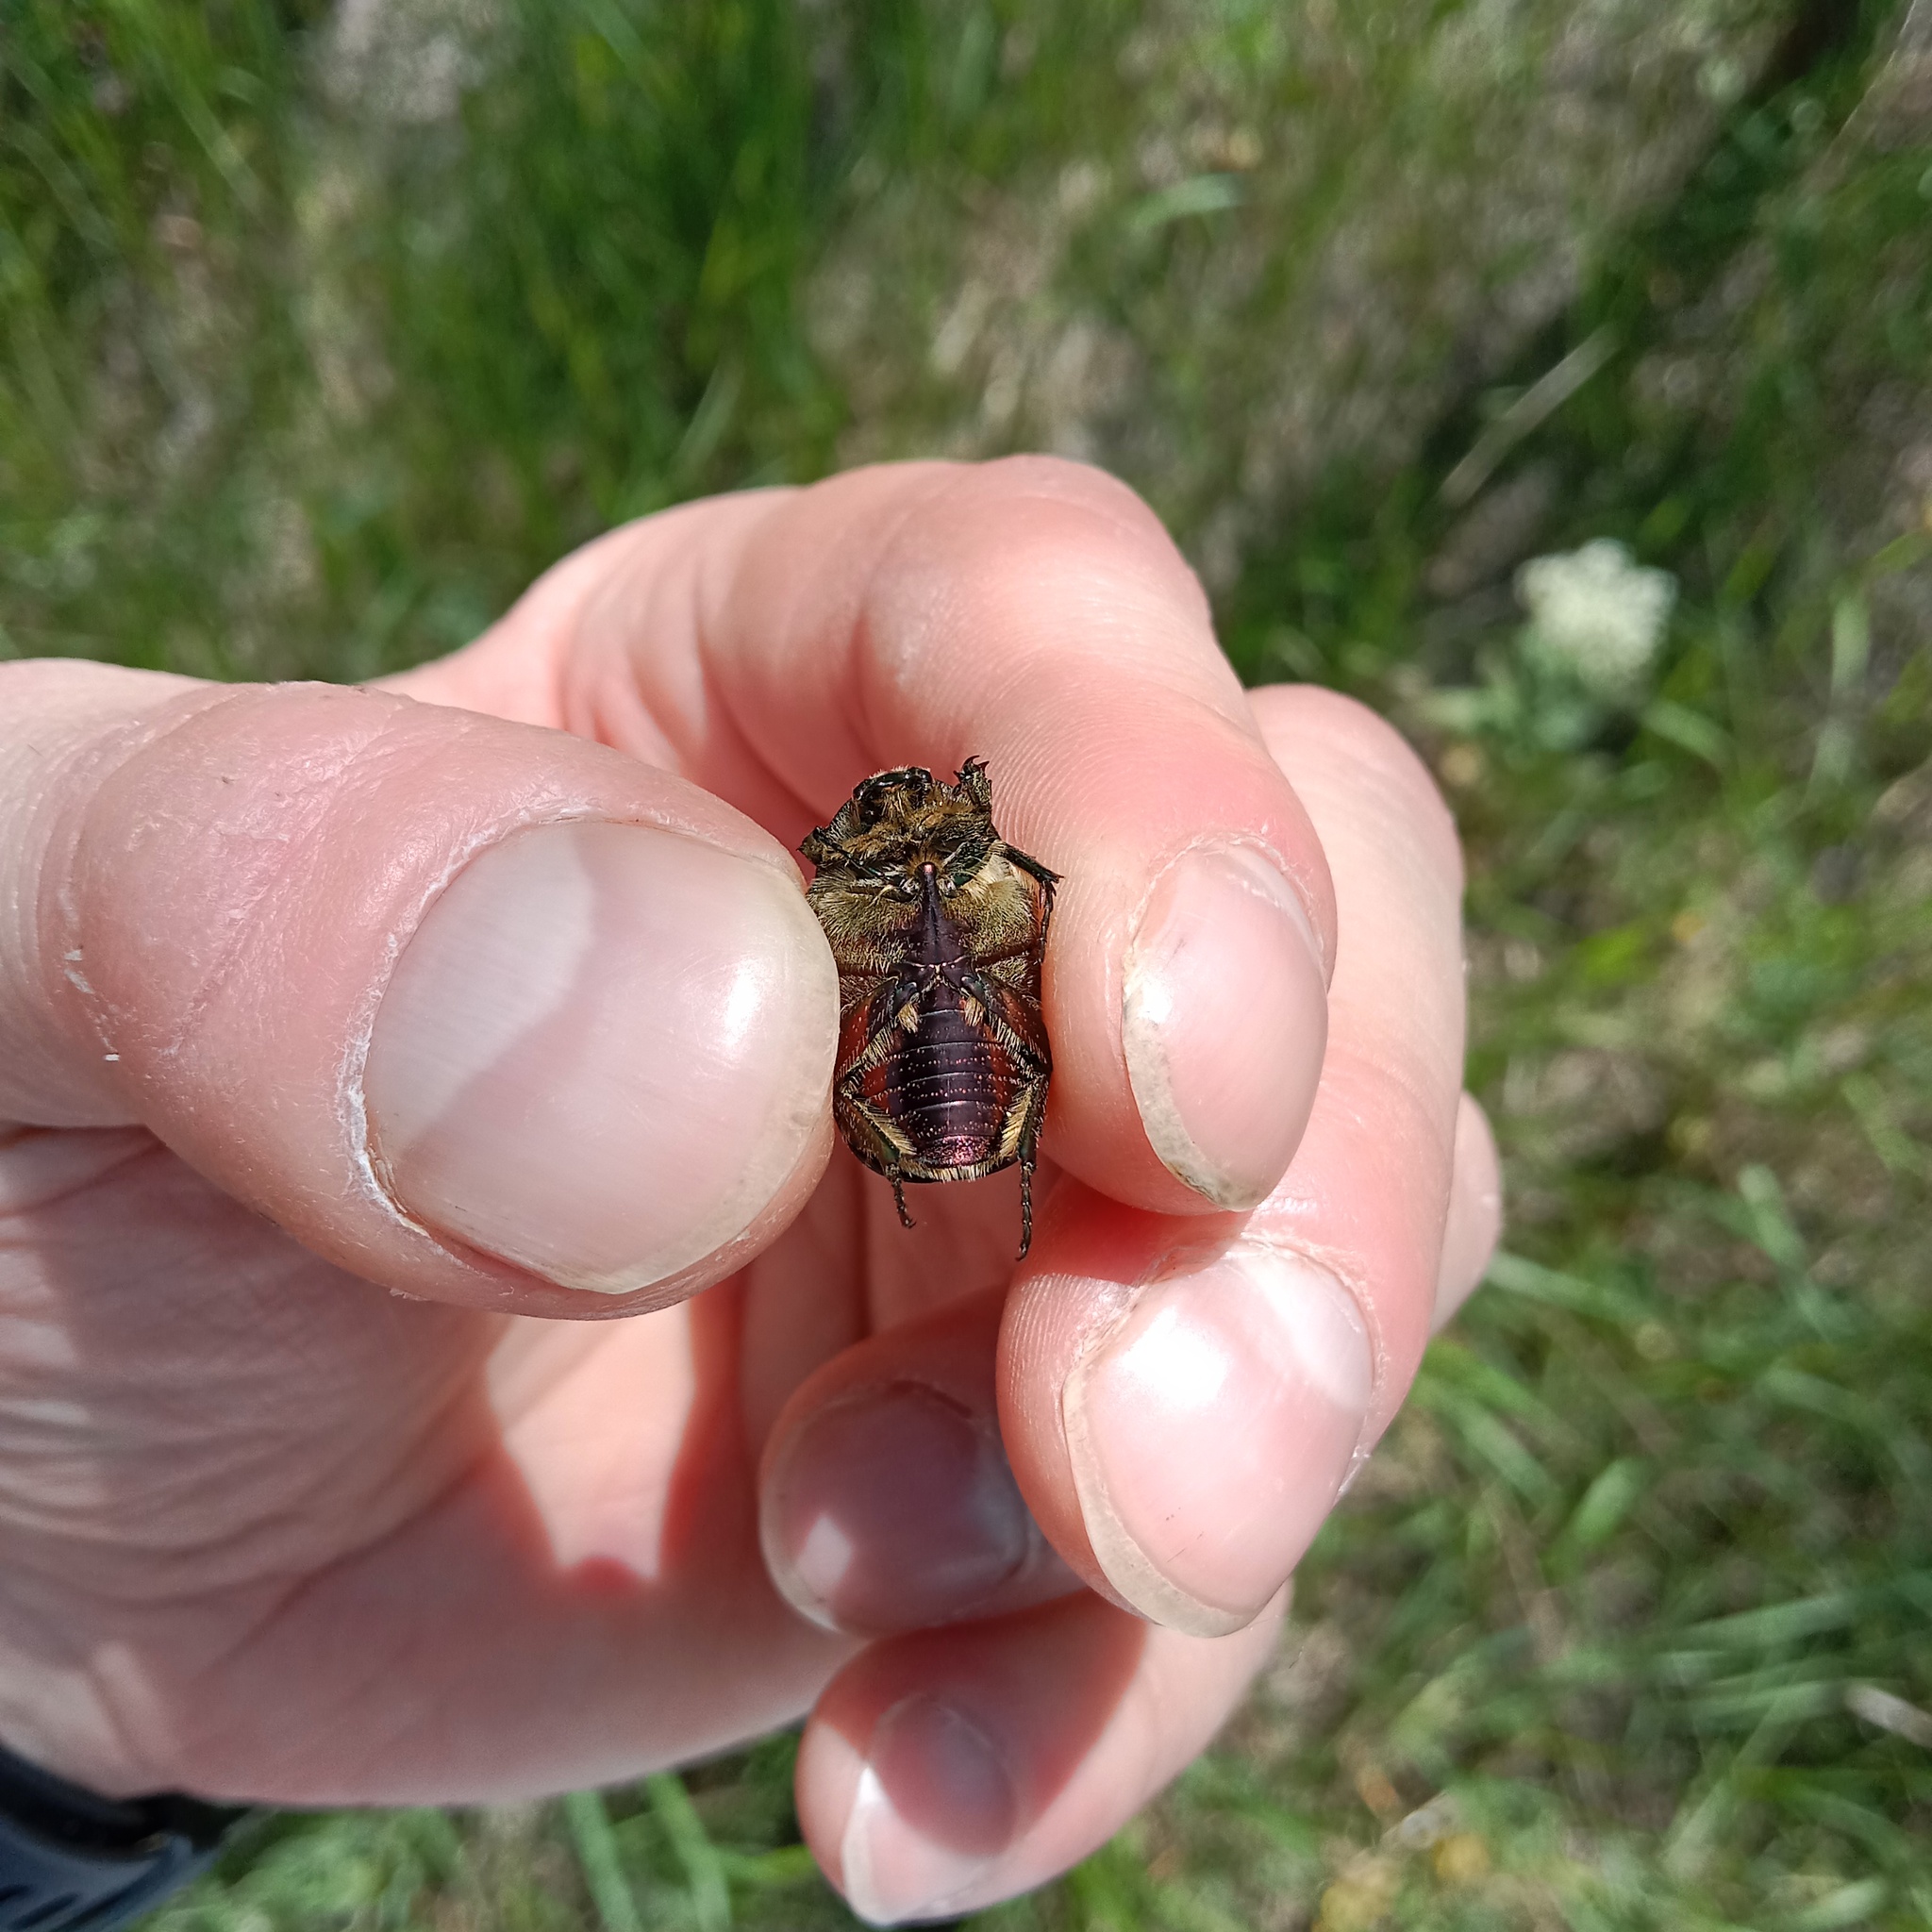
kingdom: Animalia
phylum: Arthropoda
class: Insecta
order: Coleoptera
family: Scarabaeidae
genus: Cetonia
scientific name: Cetonia aurata
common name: Rose chafer
